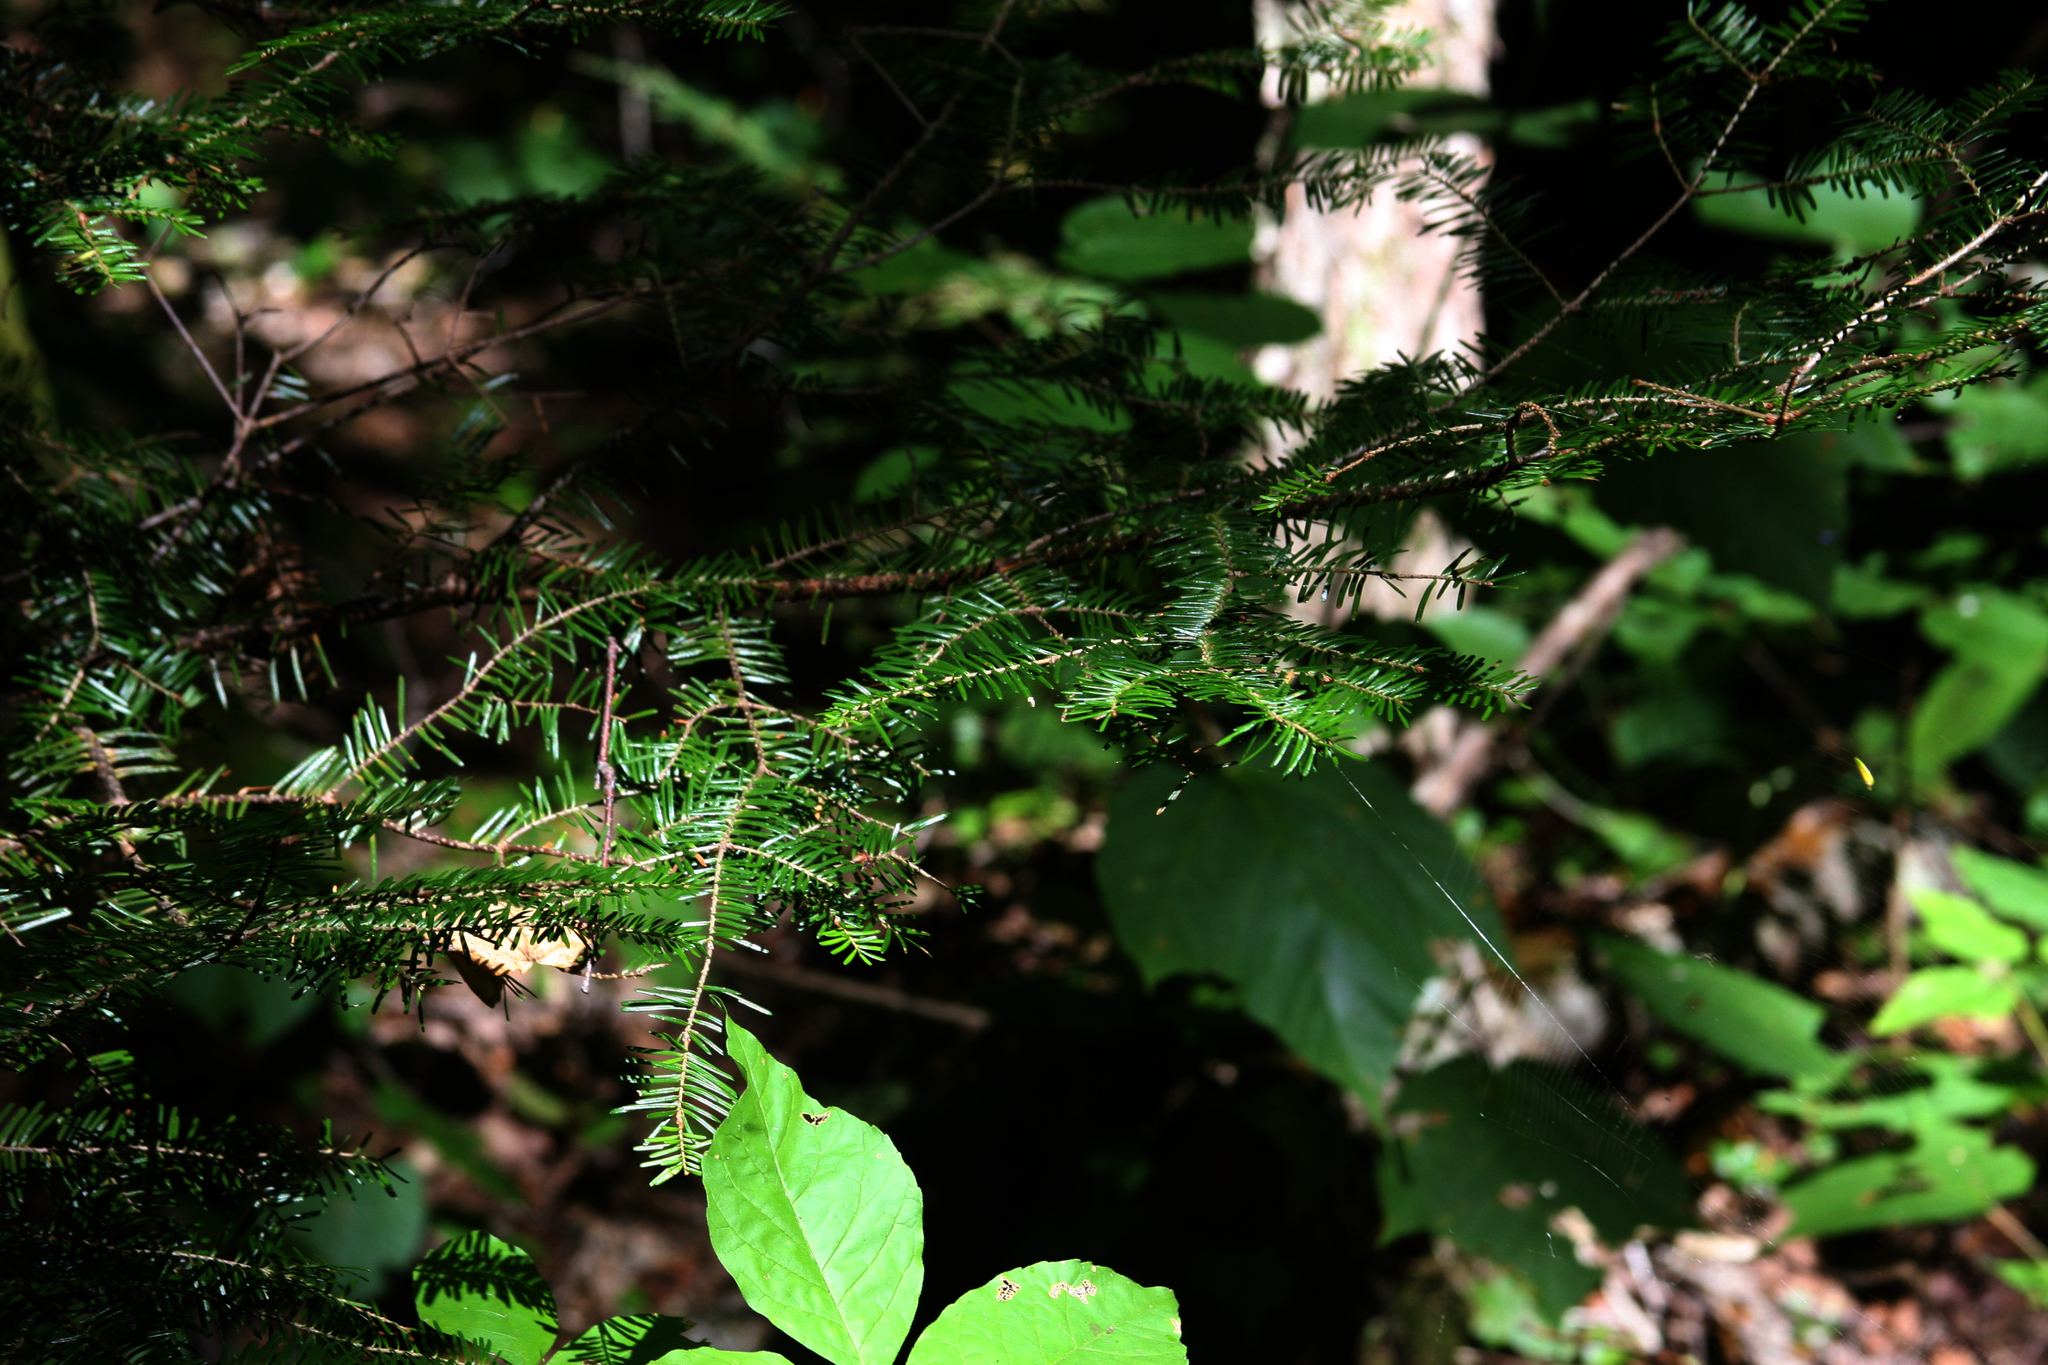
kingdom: Plantae
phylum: Tracheophyta
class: Pinopsida
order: Pinales
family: Pinaceae
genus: Abies
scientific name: Abies balsamea
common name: Balsam fir
